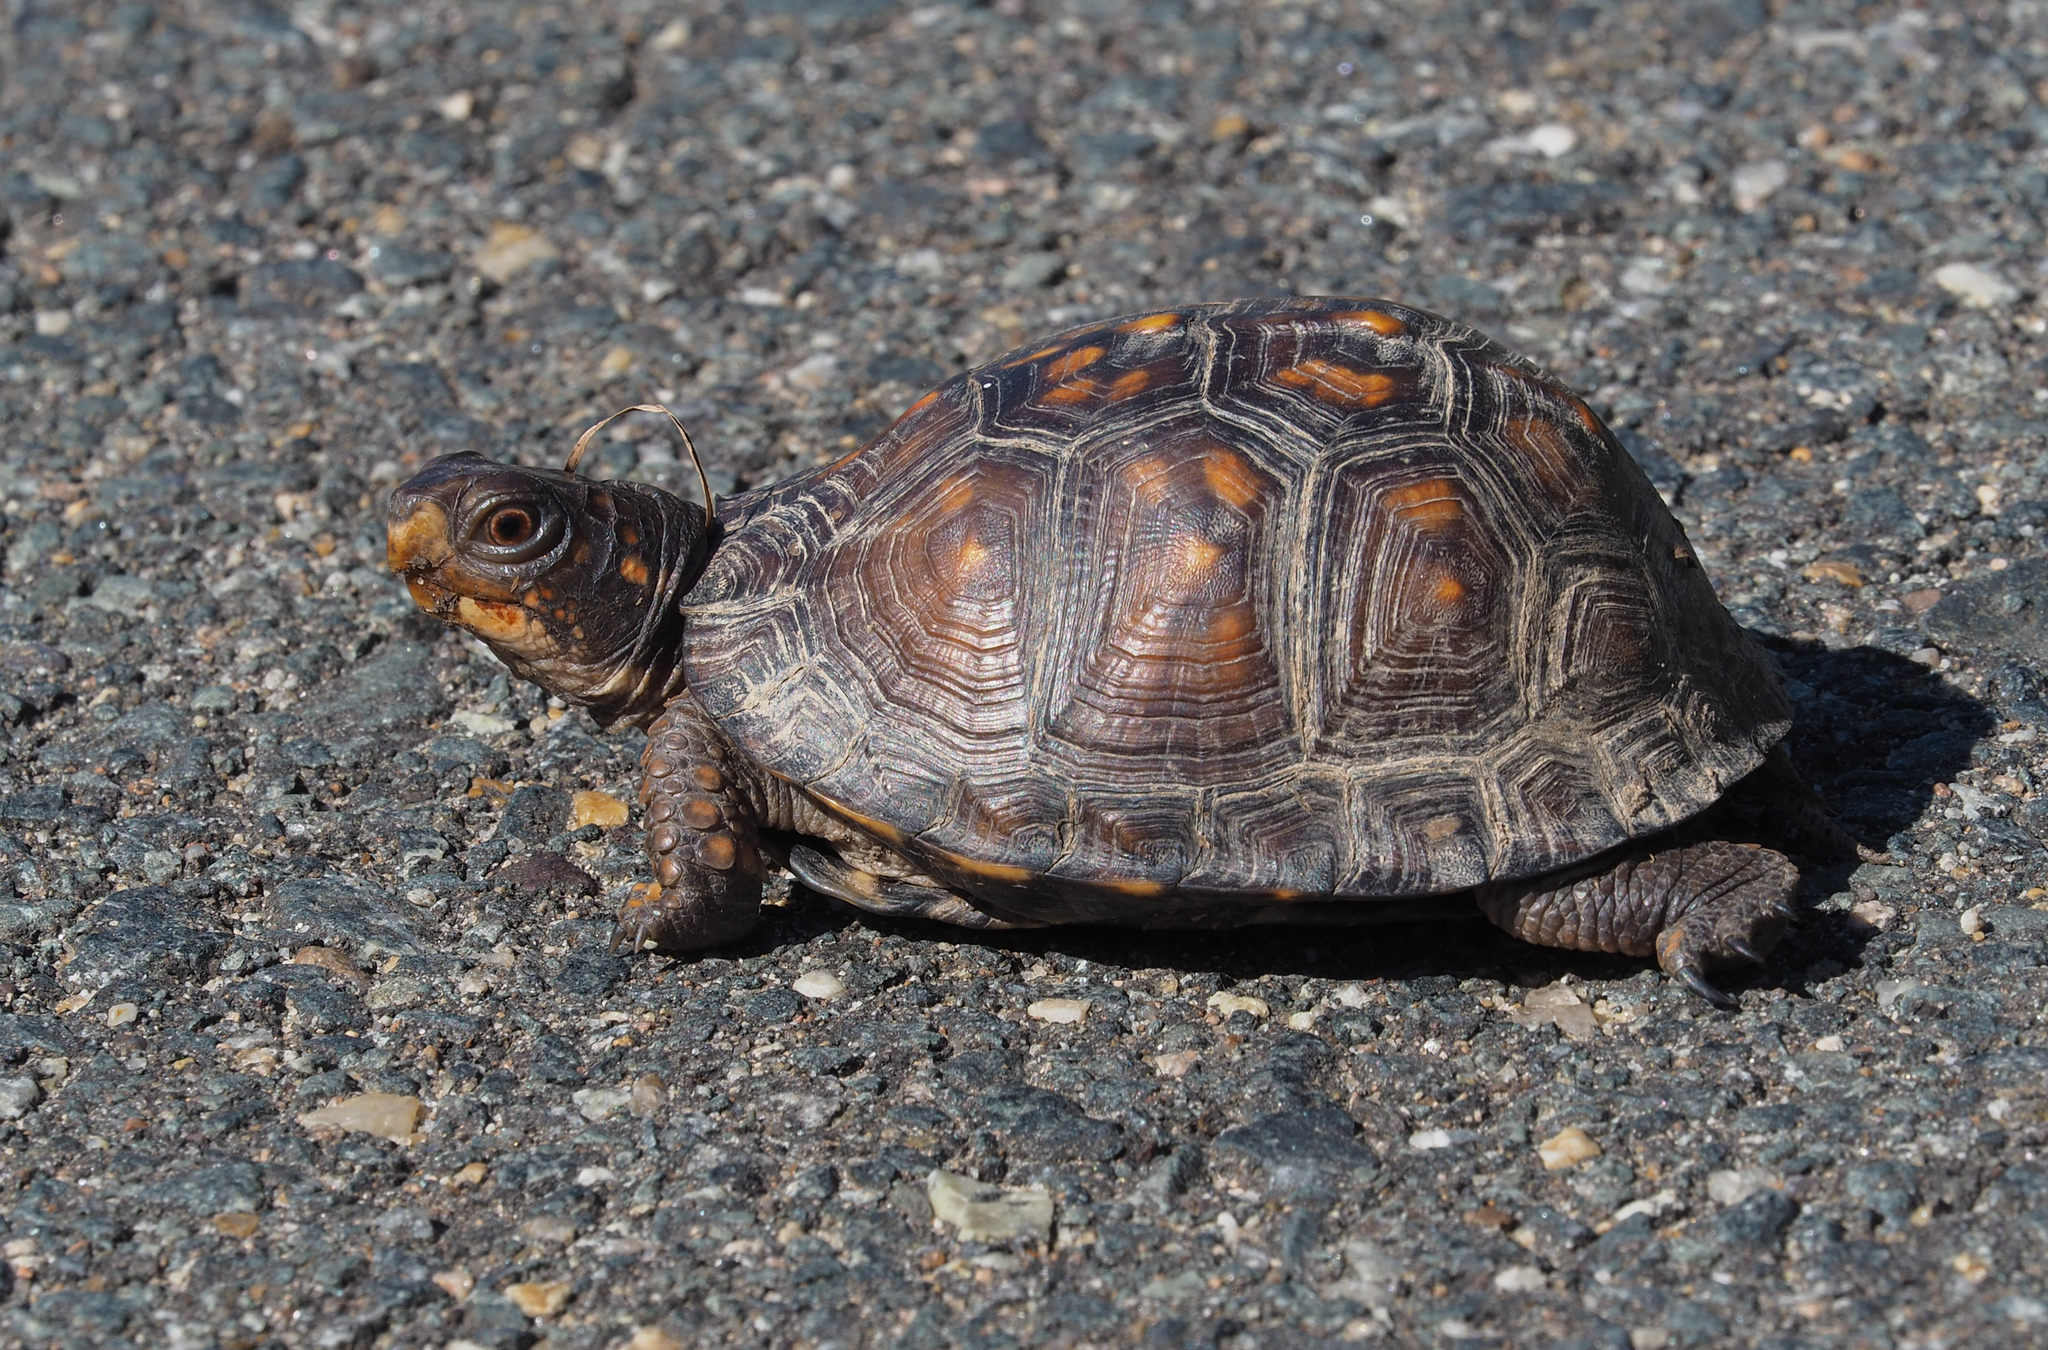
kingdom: Animalia
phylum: Chordata
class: Testudines
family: Emydidae
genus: Terrapene
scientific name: Terrapene carolina
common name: Common box turtle
